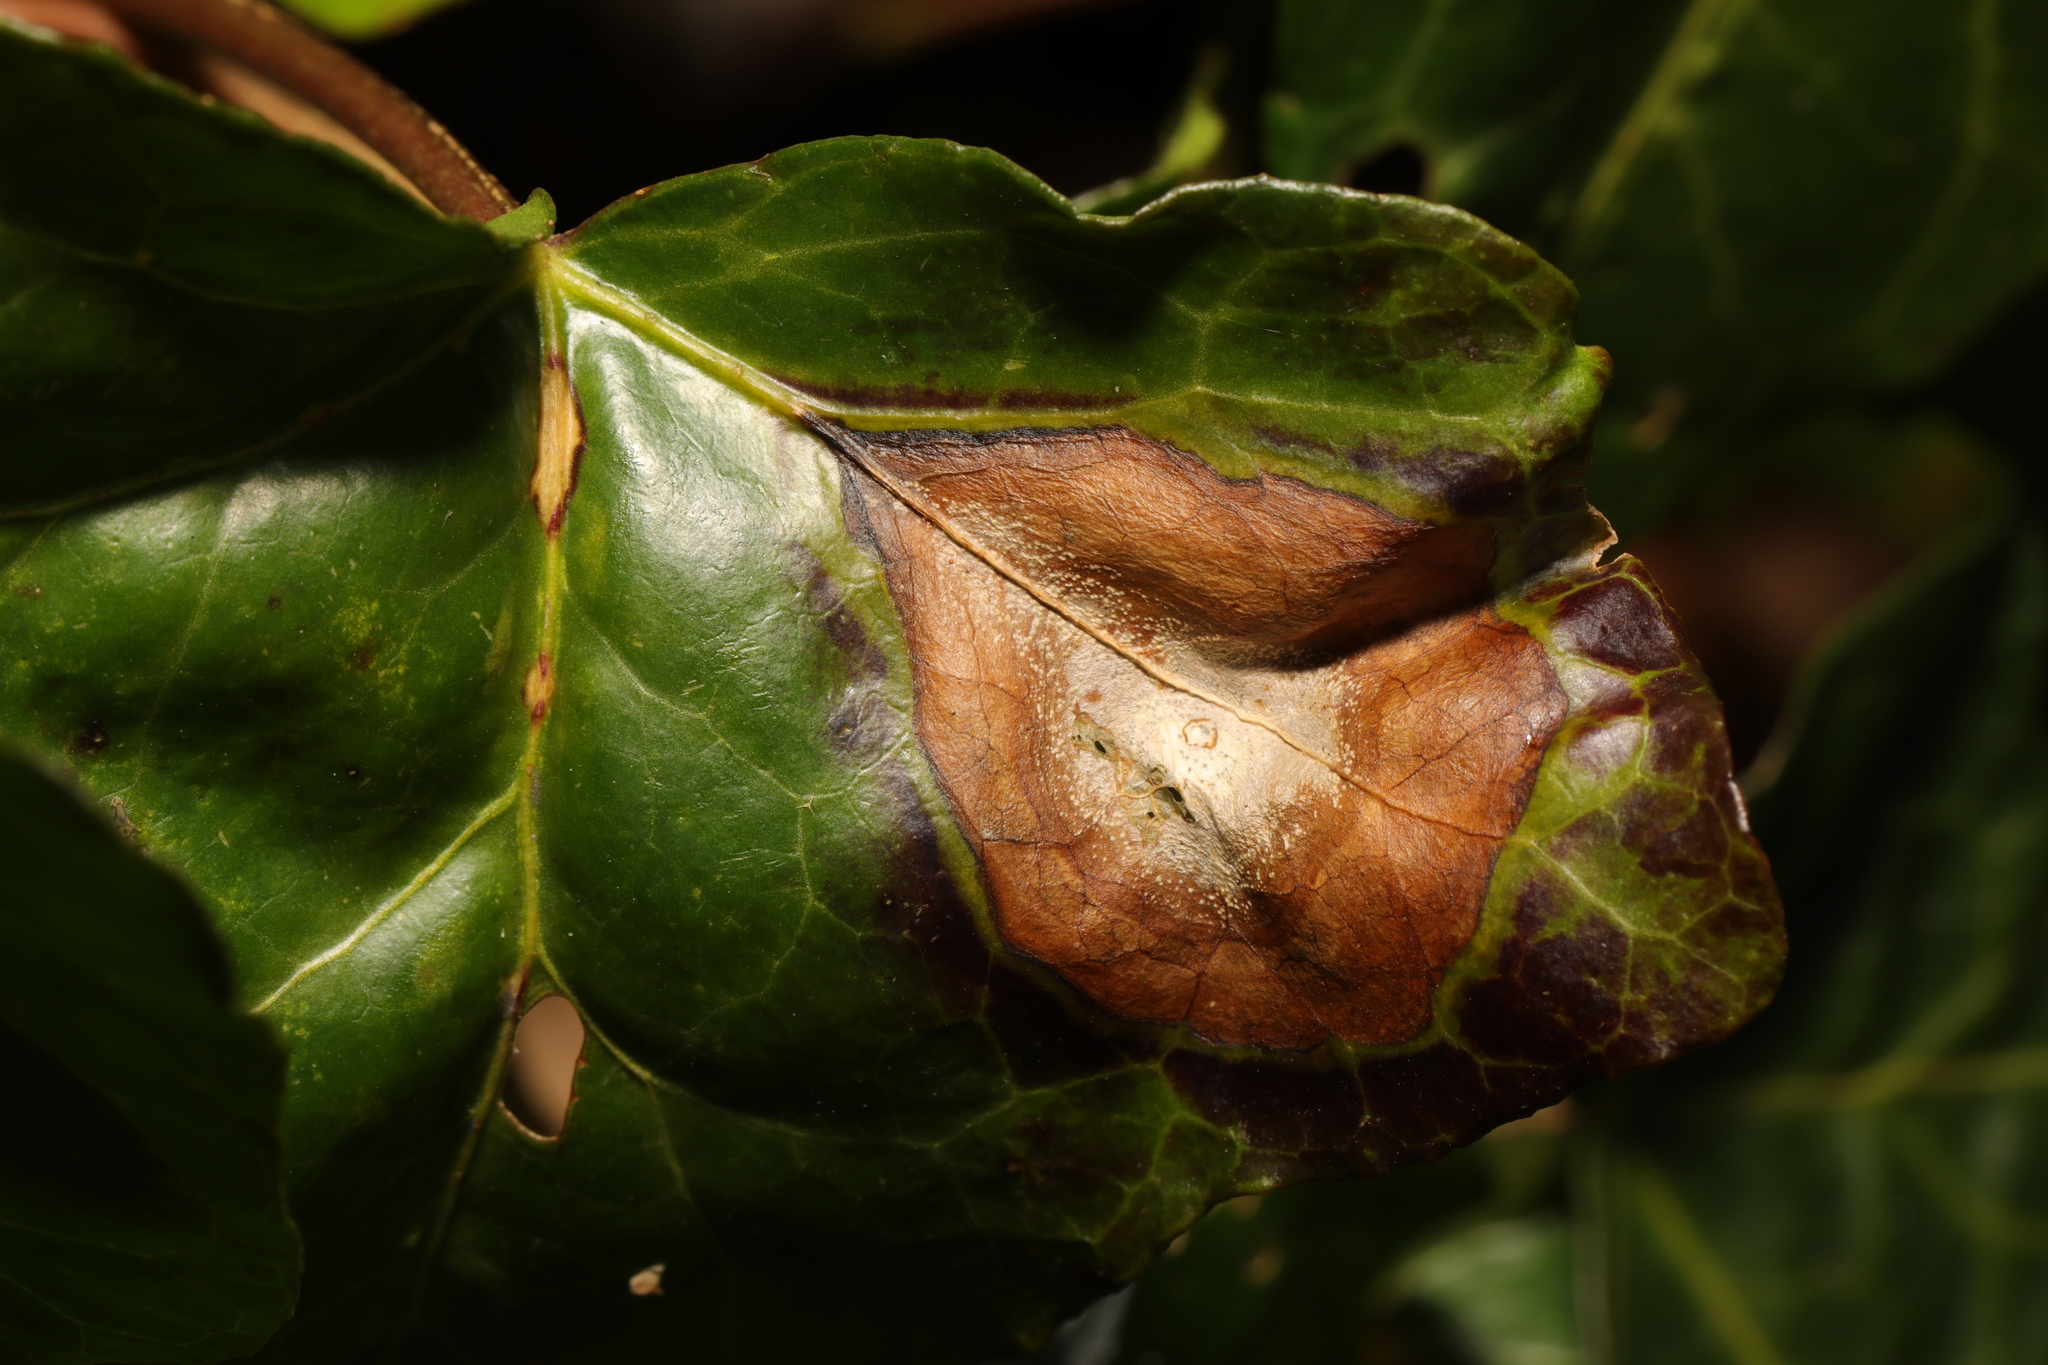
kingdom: Fungi
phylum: Ascomycota
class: Dothideomycetes
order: Pleosporales
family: Didymellaceae
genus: Boeremia
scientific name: Boeremia hedericola
